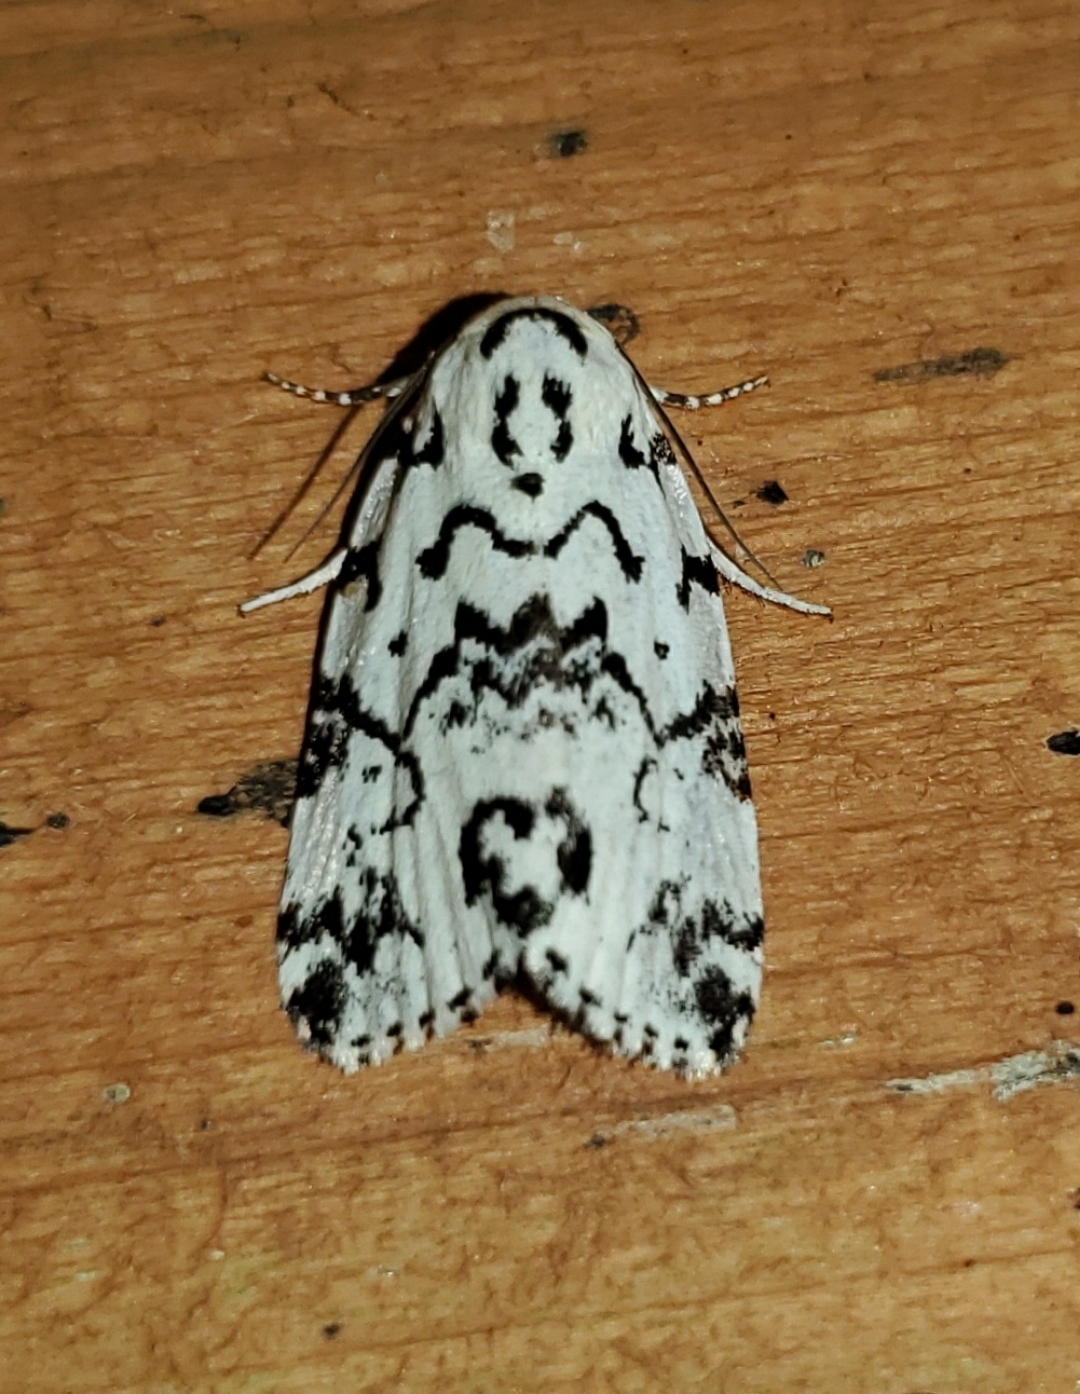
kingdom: Animalia
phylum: Arthropoda
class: Insecta
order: Lepidoptera
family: Noctuidae
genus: Polygrammate
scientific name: Polygrammate hebraeicum
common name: Hebrew moth
